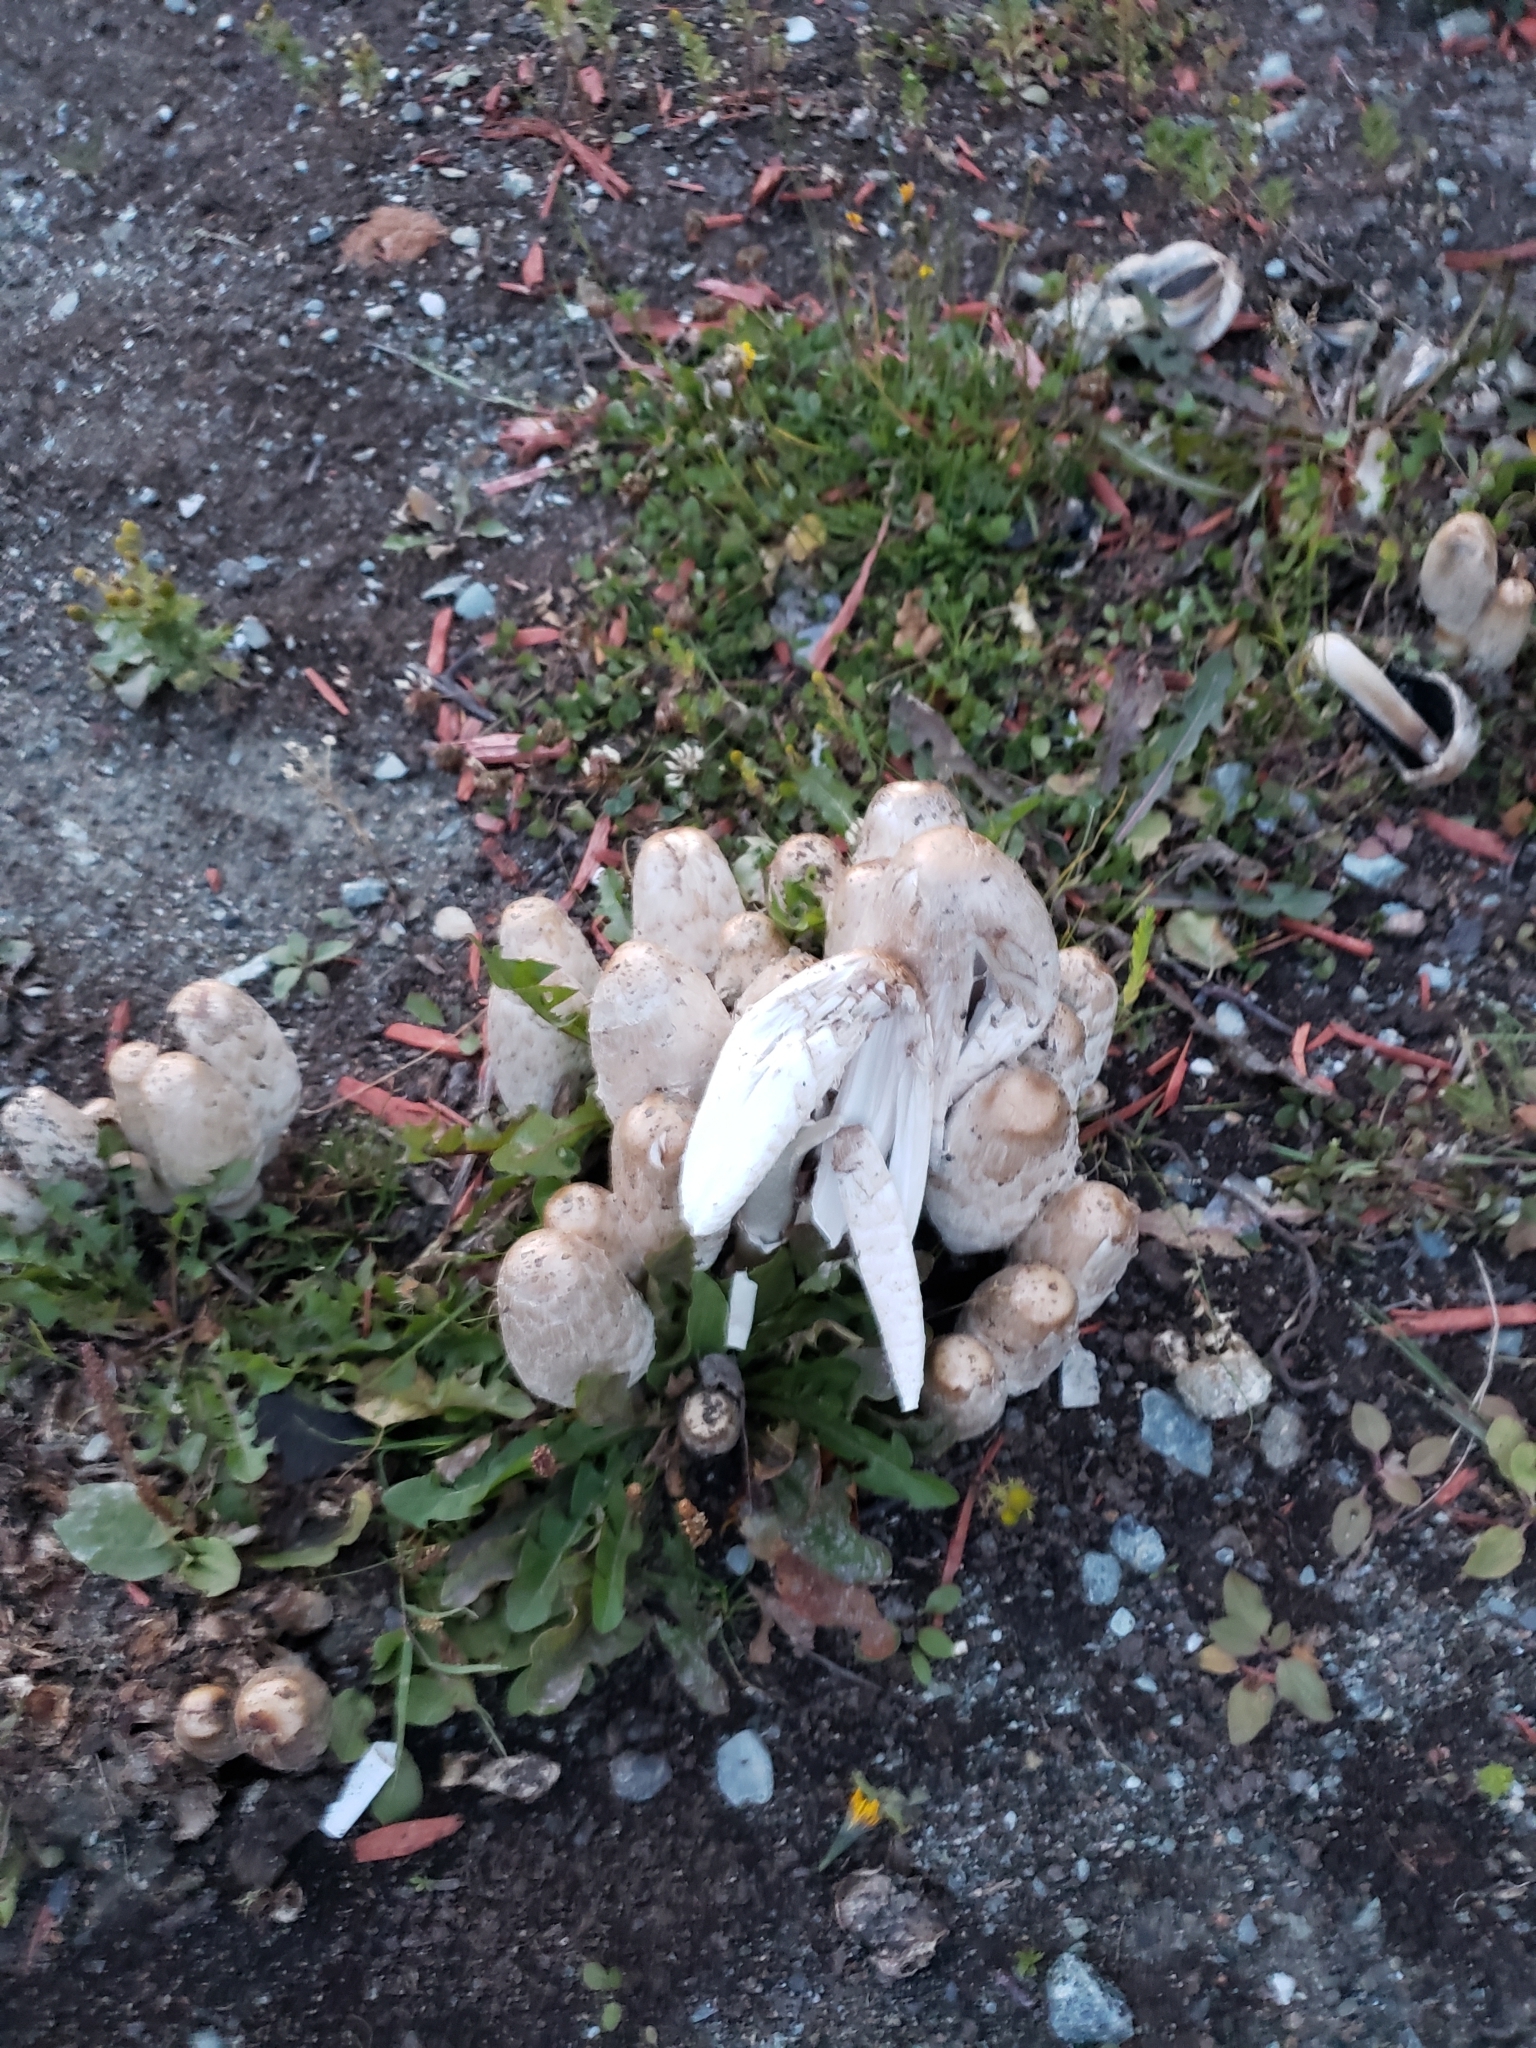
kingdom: Fungi
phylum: Basidiomycota
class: Agaricomycetes
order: Agaricales
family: Agaricaceae
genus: Coprinus
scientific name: Coprinus comatus
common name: Lawyer's wig
